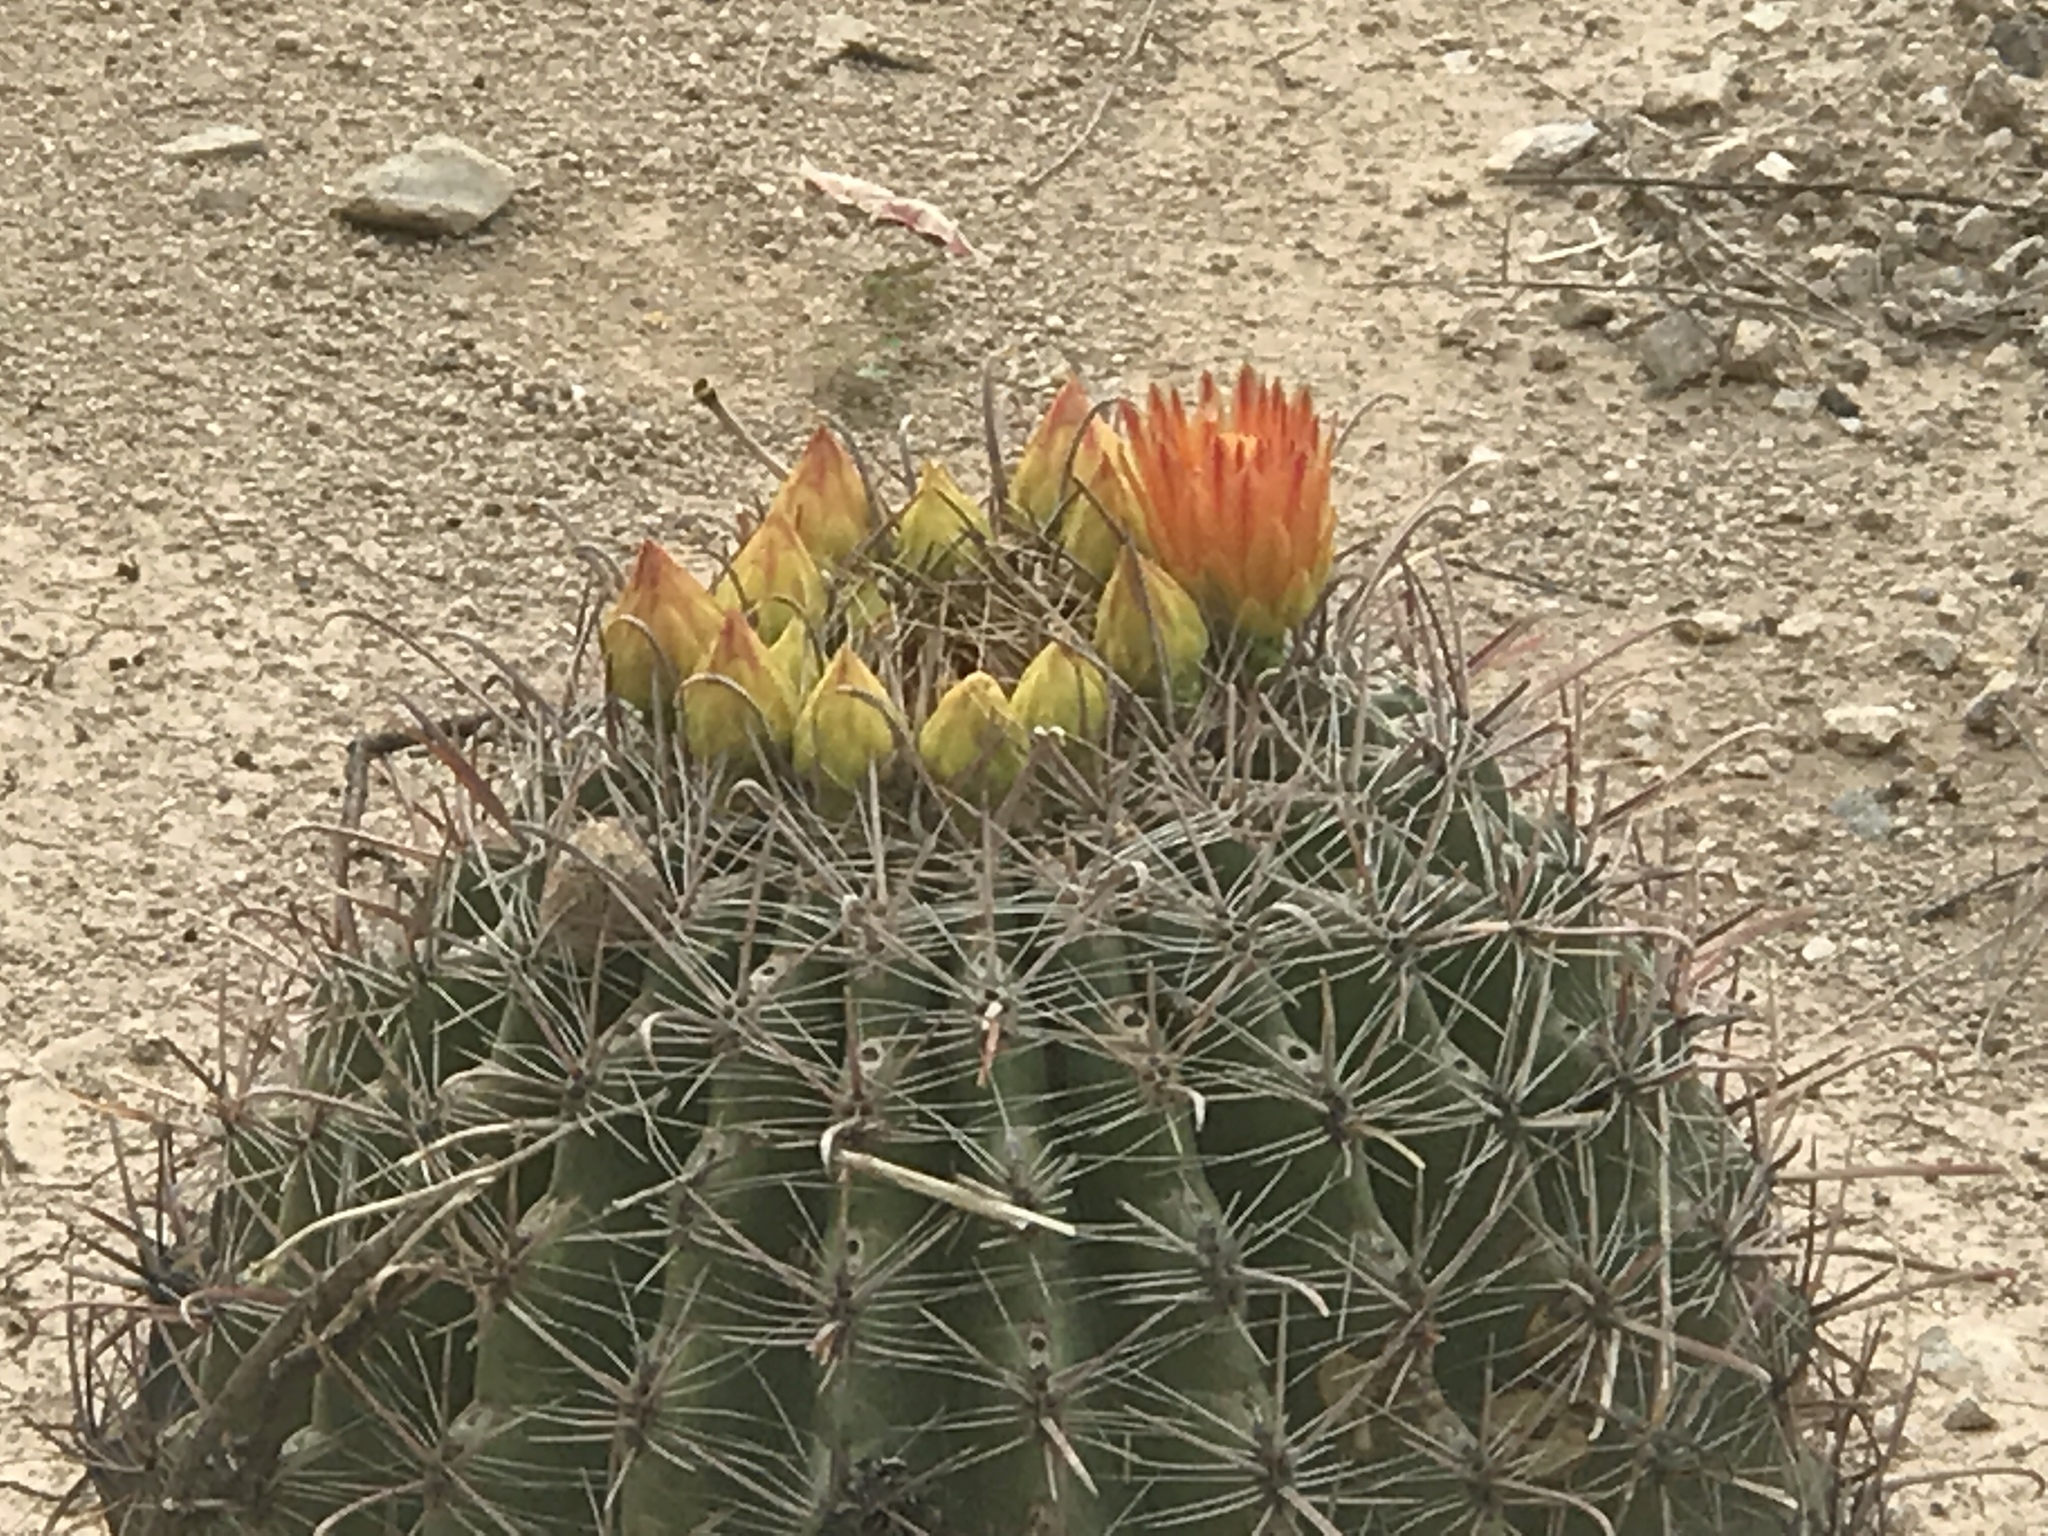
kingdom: Plantae
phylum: Tracheophyta
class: Magnoliopsida
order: Caryophyllales
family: Cactaceae
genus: Ferocactus
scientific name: Ferocactus wislizeni
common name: Candy barrel cactus
